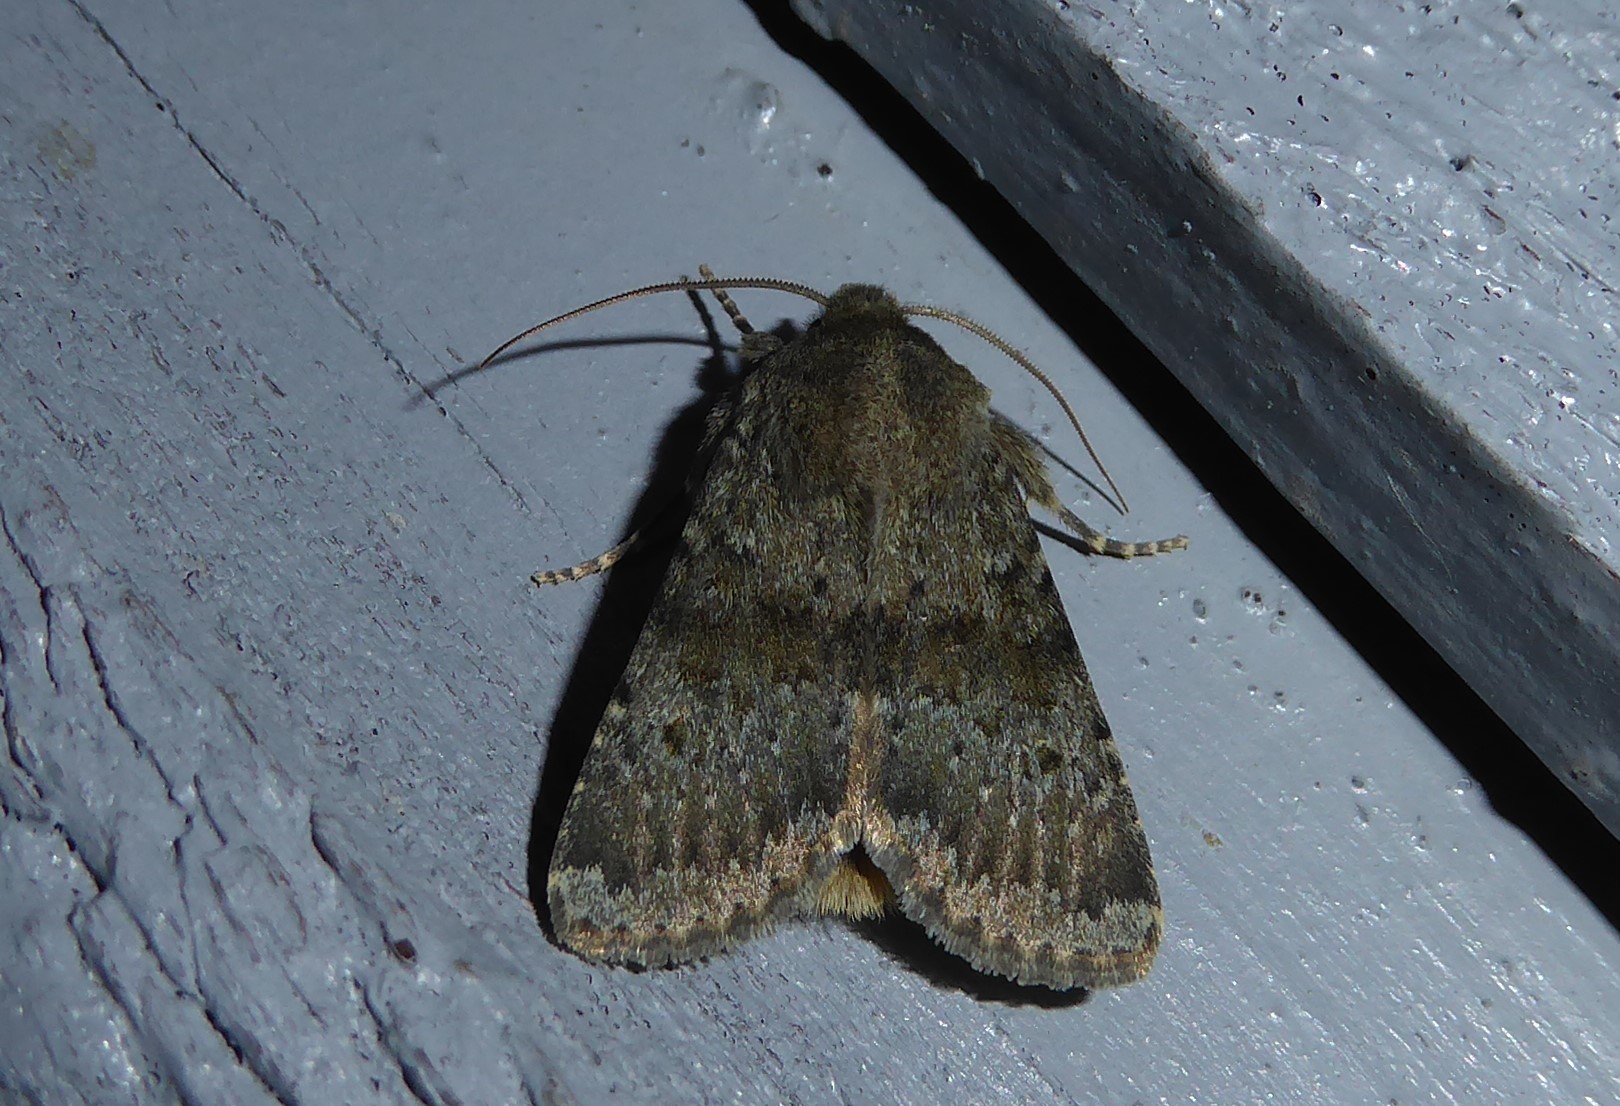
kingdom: Animalia
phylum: Arthropoda
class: Insecta
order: Lepidoptera
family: Noctuidae
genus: Ichneutica
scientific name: Ichneutica moderata
